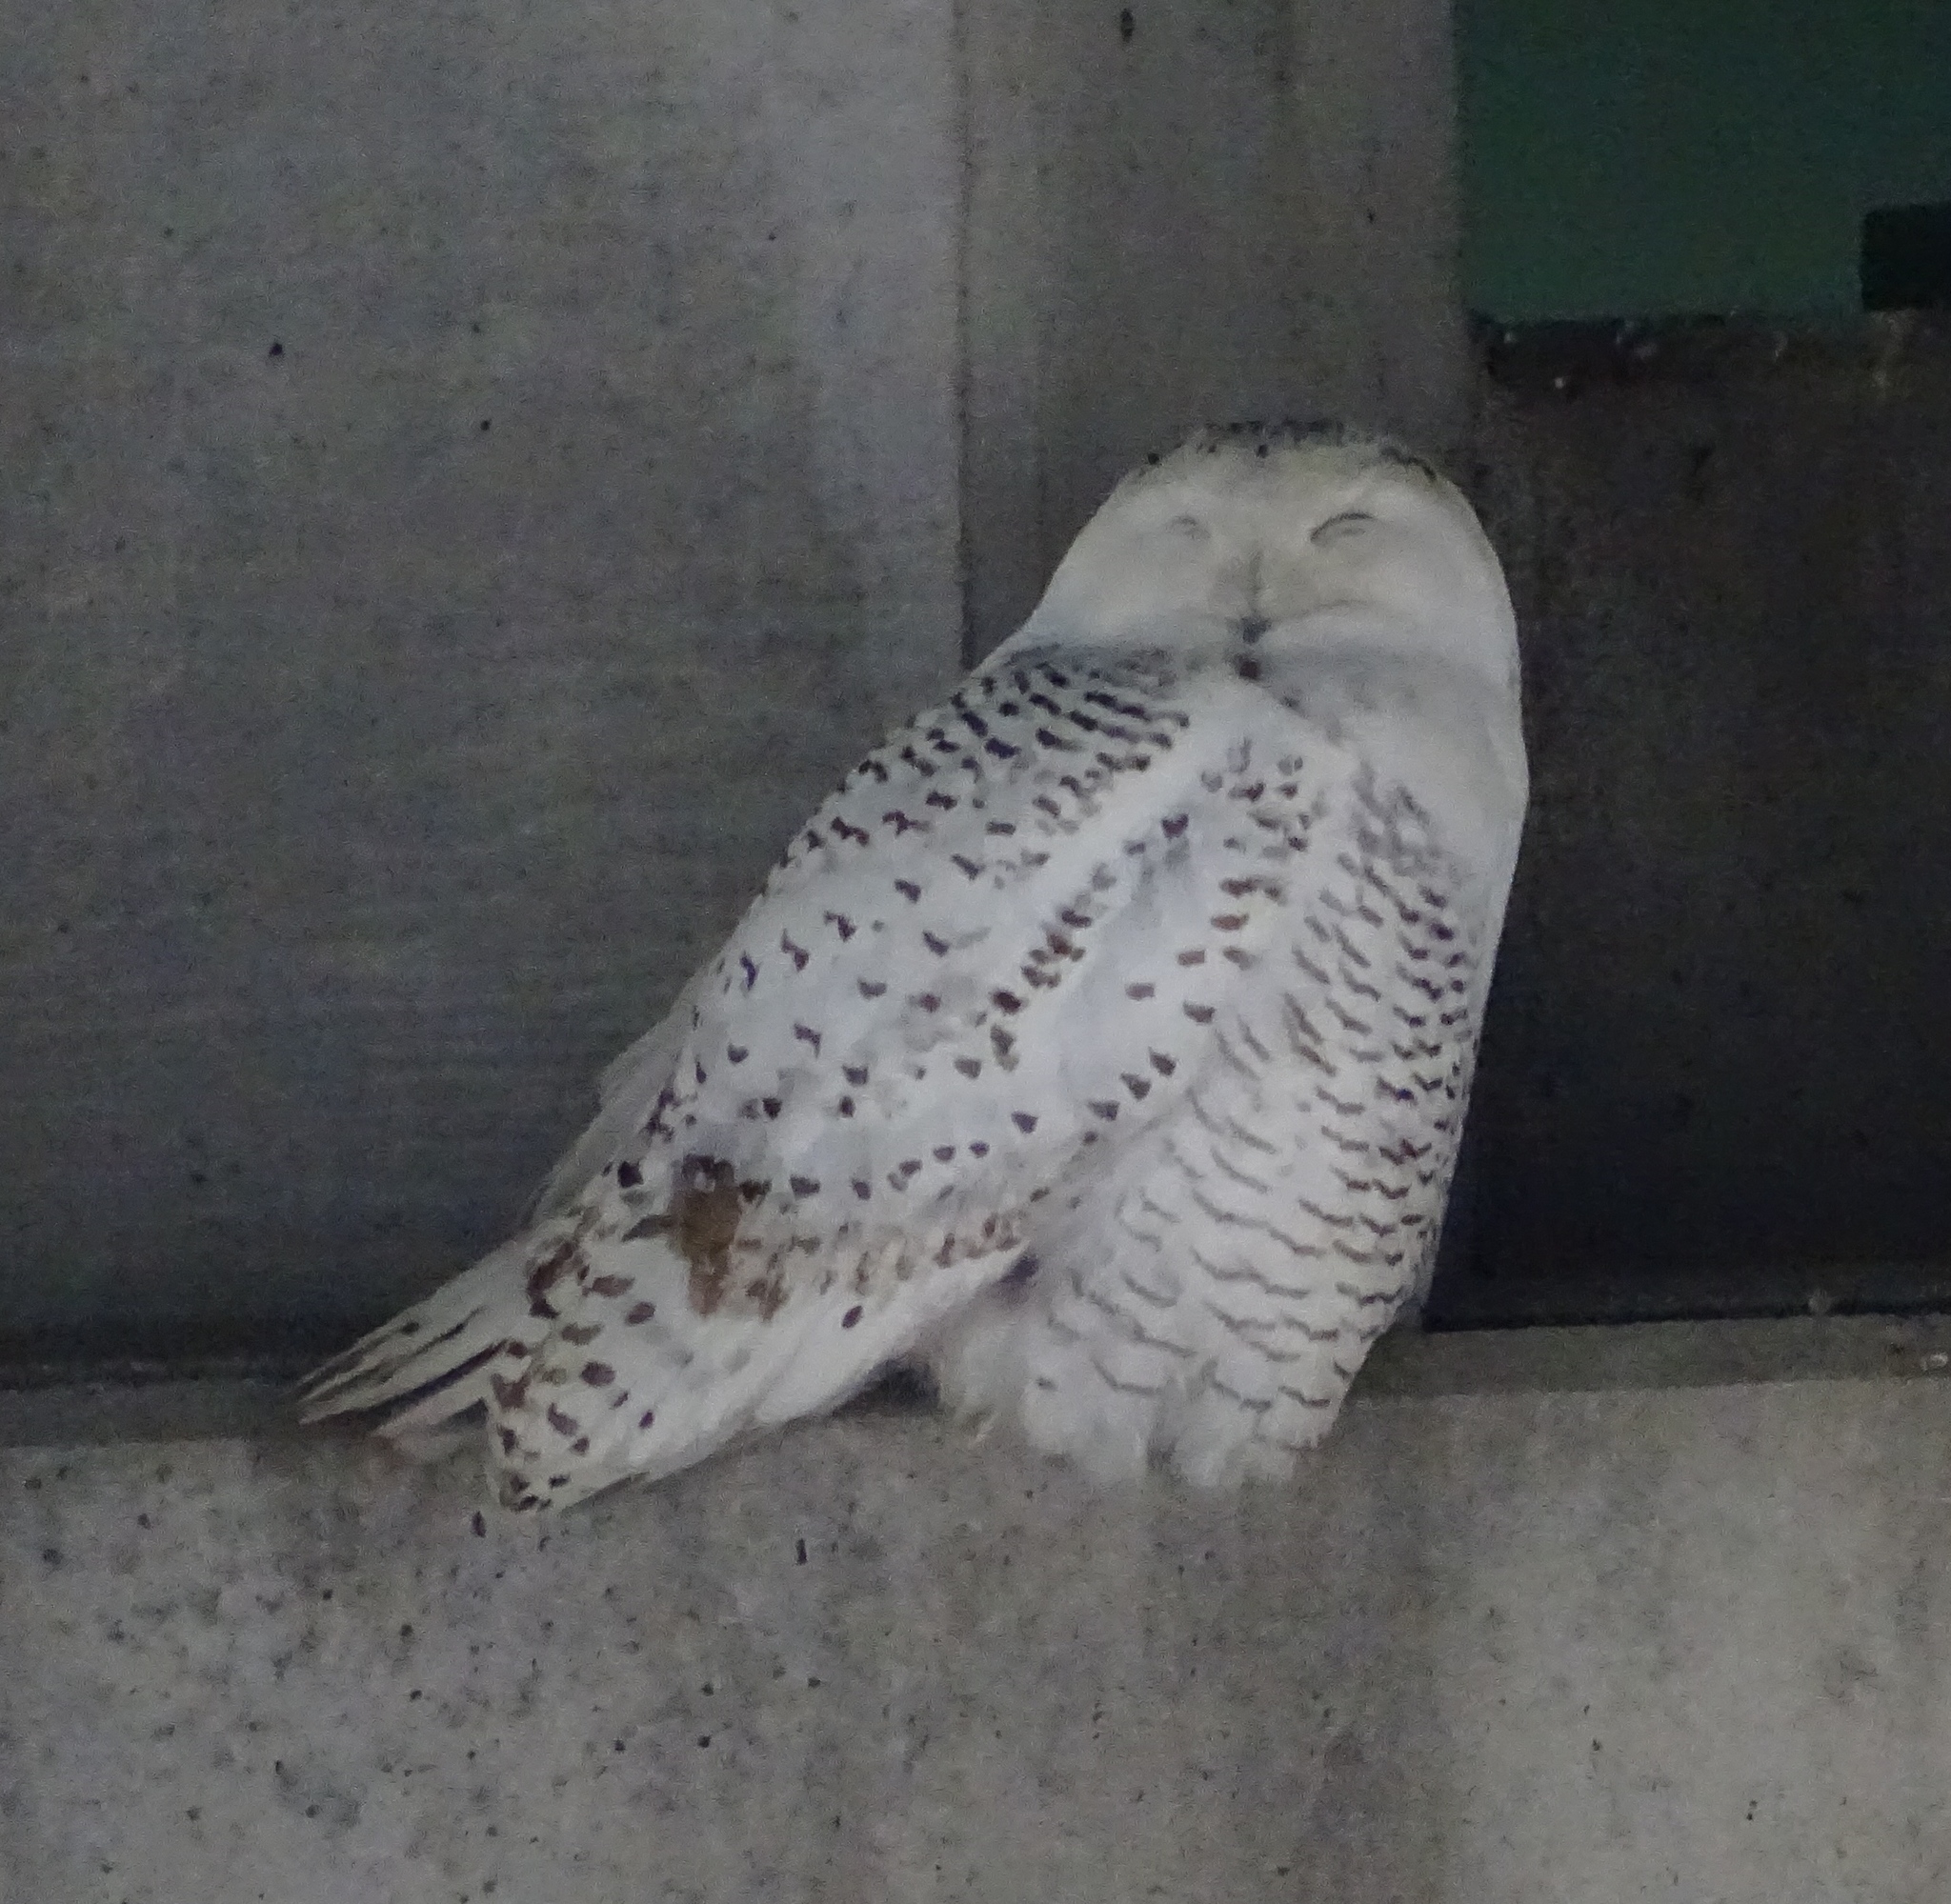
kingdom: Animalia
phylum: Chordata
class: Aves
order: Strigiformes
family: Strigidae
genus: Bubo
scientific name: Bubo scandiacus
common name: Snowy owl
